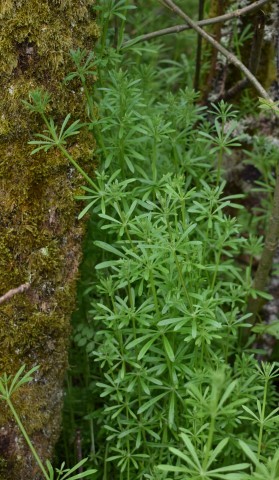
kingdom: Plantae
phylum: Tracheophyta
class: Magnoliopsida
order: Gentianales
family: Rubiaceae
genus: Galium
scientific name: Galium aparine
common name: Cleavers
